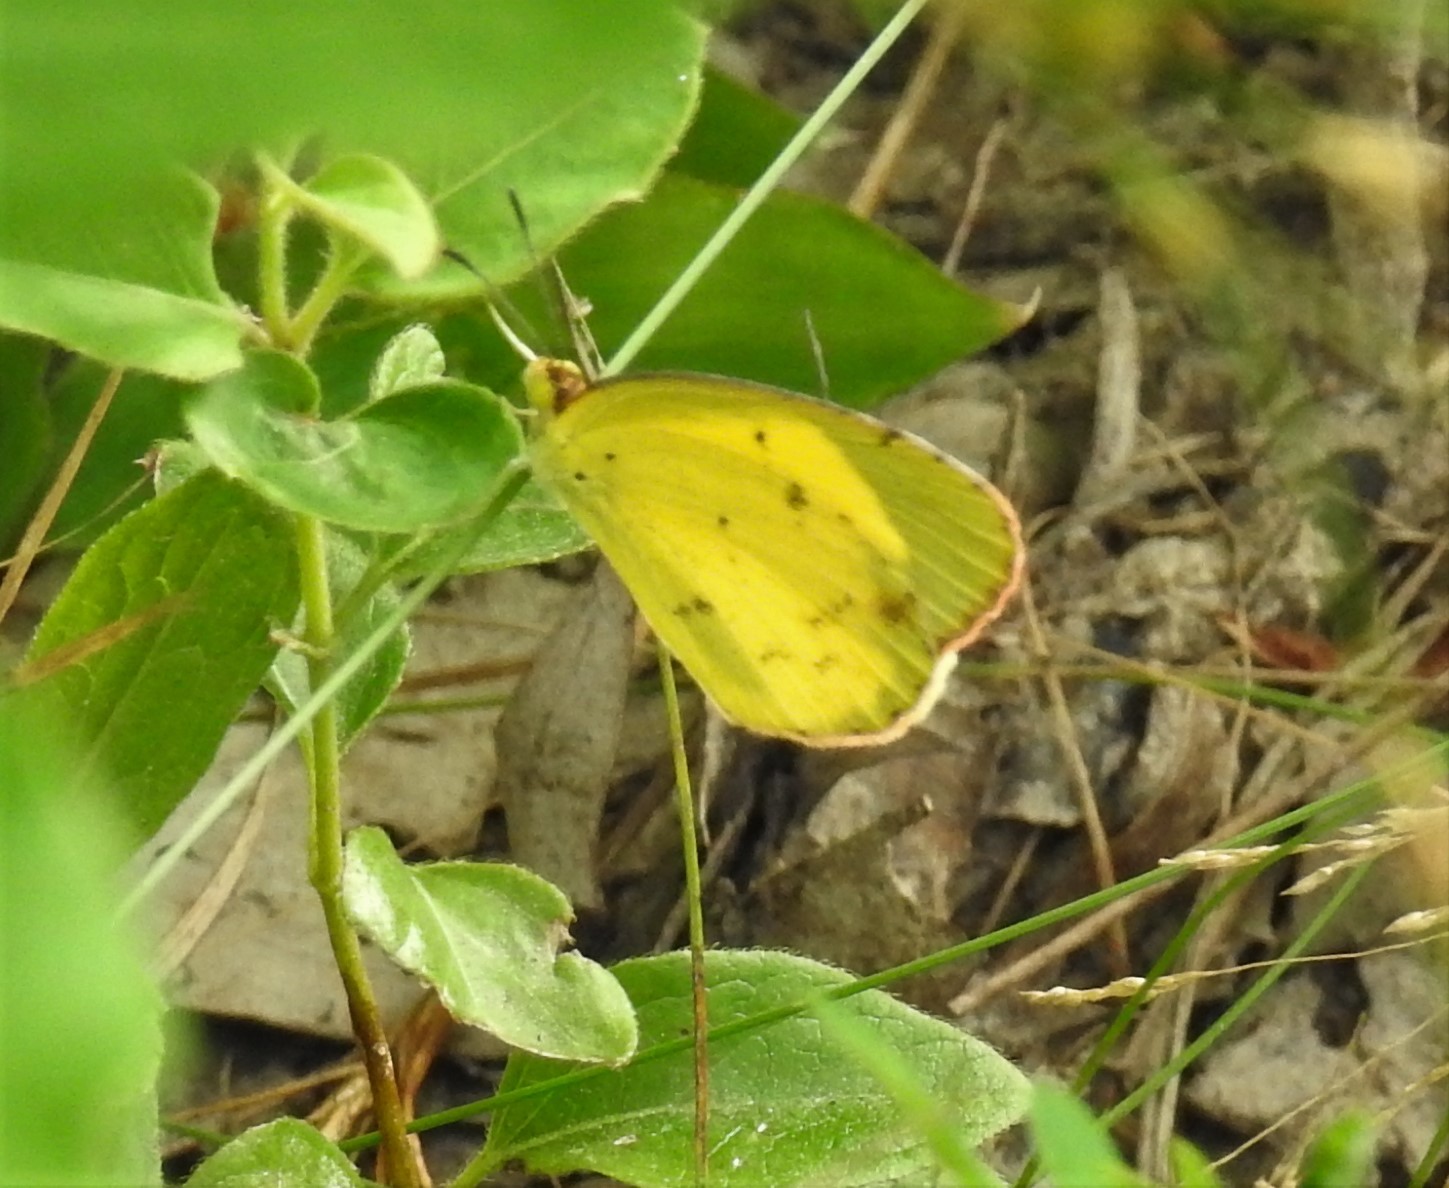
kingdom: Animalia
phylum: Arthropoda
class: Insecta
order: Lepidoptera
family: Pieridae
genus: Pyrisitia
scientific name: Pyrisitia lisa
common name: Little yellow
